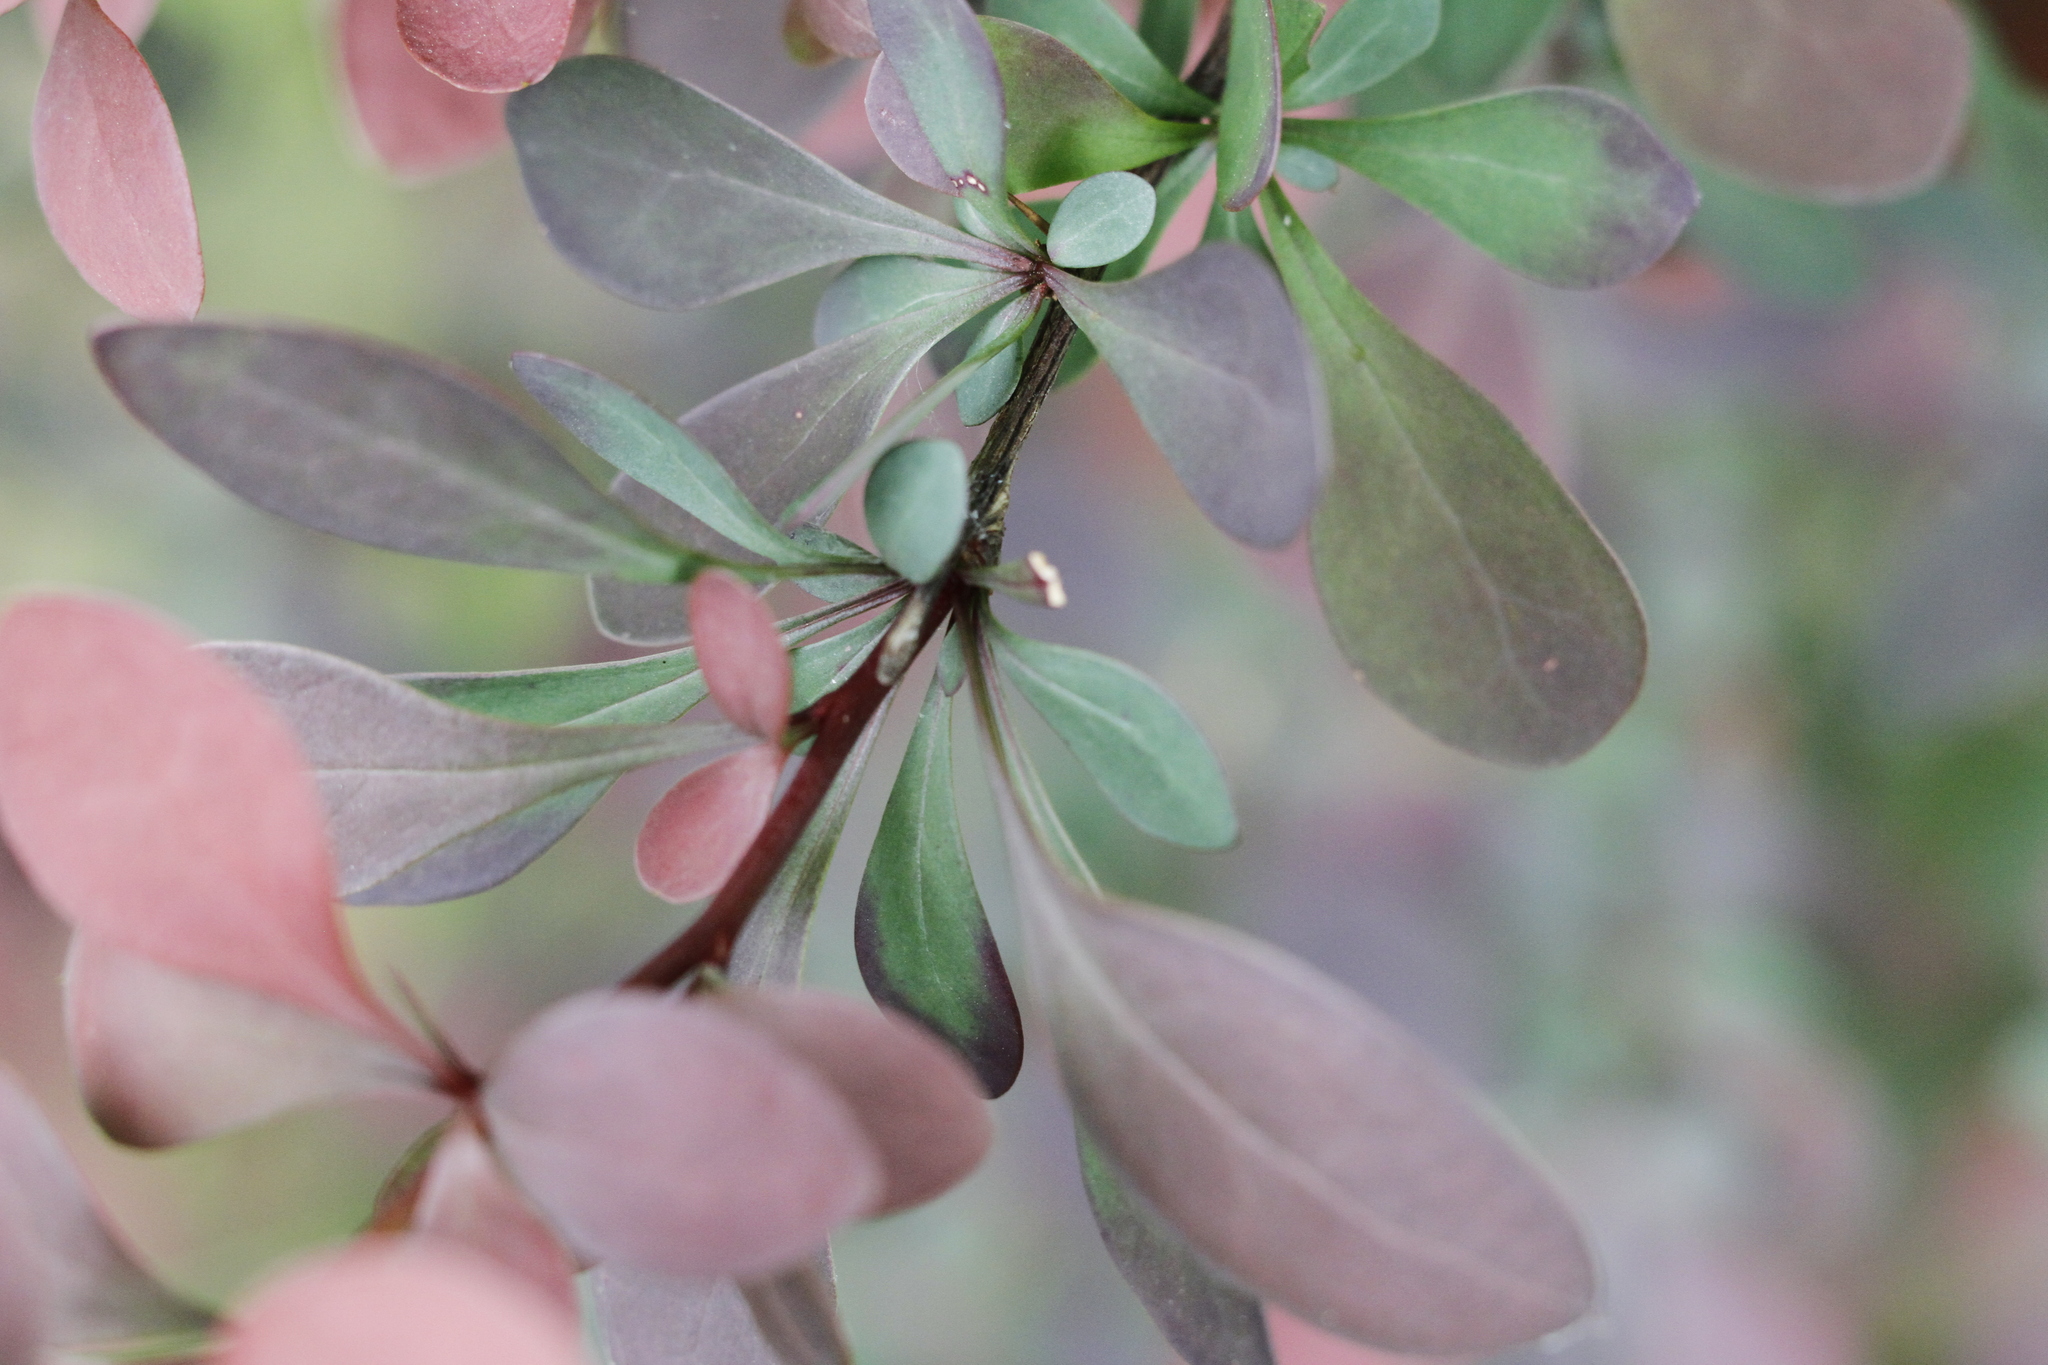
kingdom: Plantae
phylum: Tracheophyta
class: Magnoliopsida
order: Ranunculales
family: Berberidaceae
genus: Berberis
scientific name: Berberis thunbergii
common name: Japanese barberry
